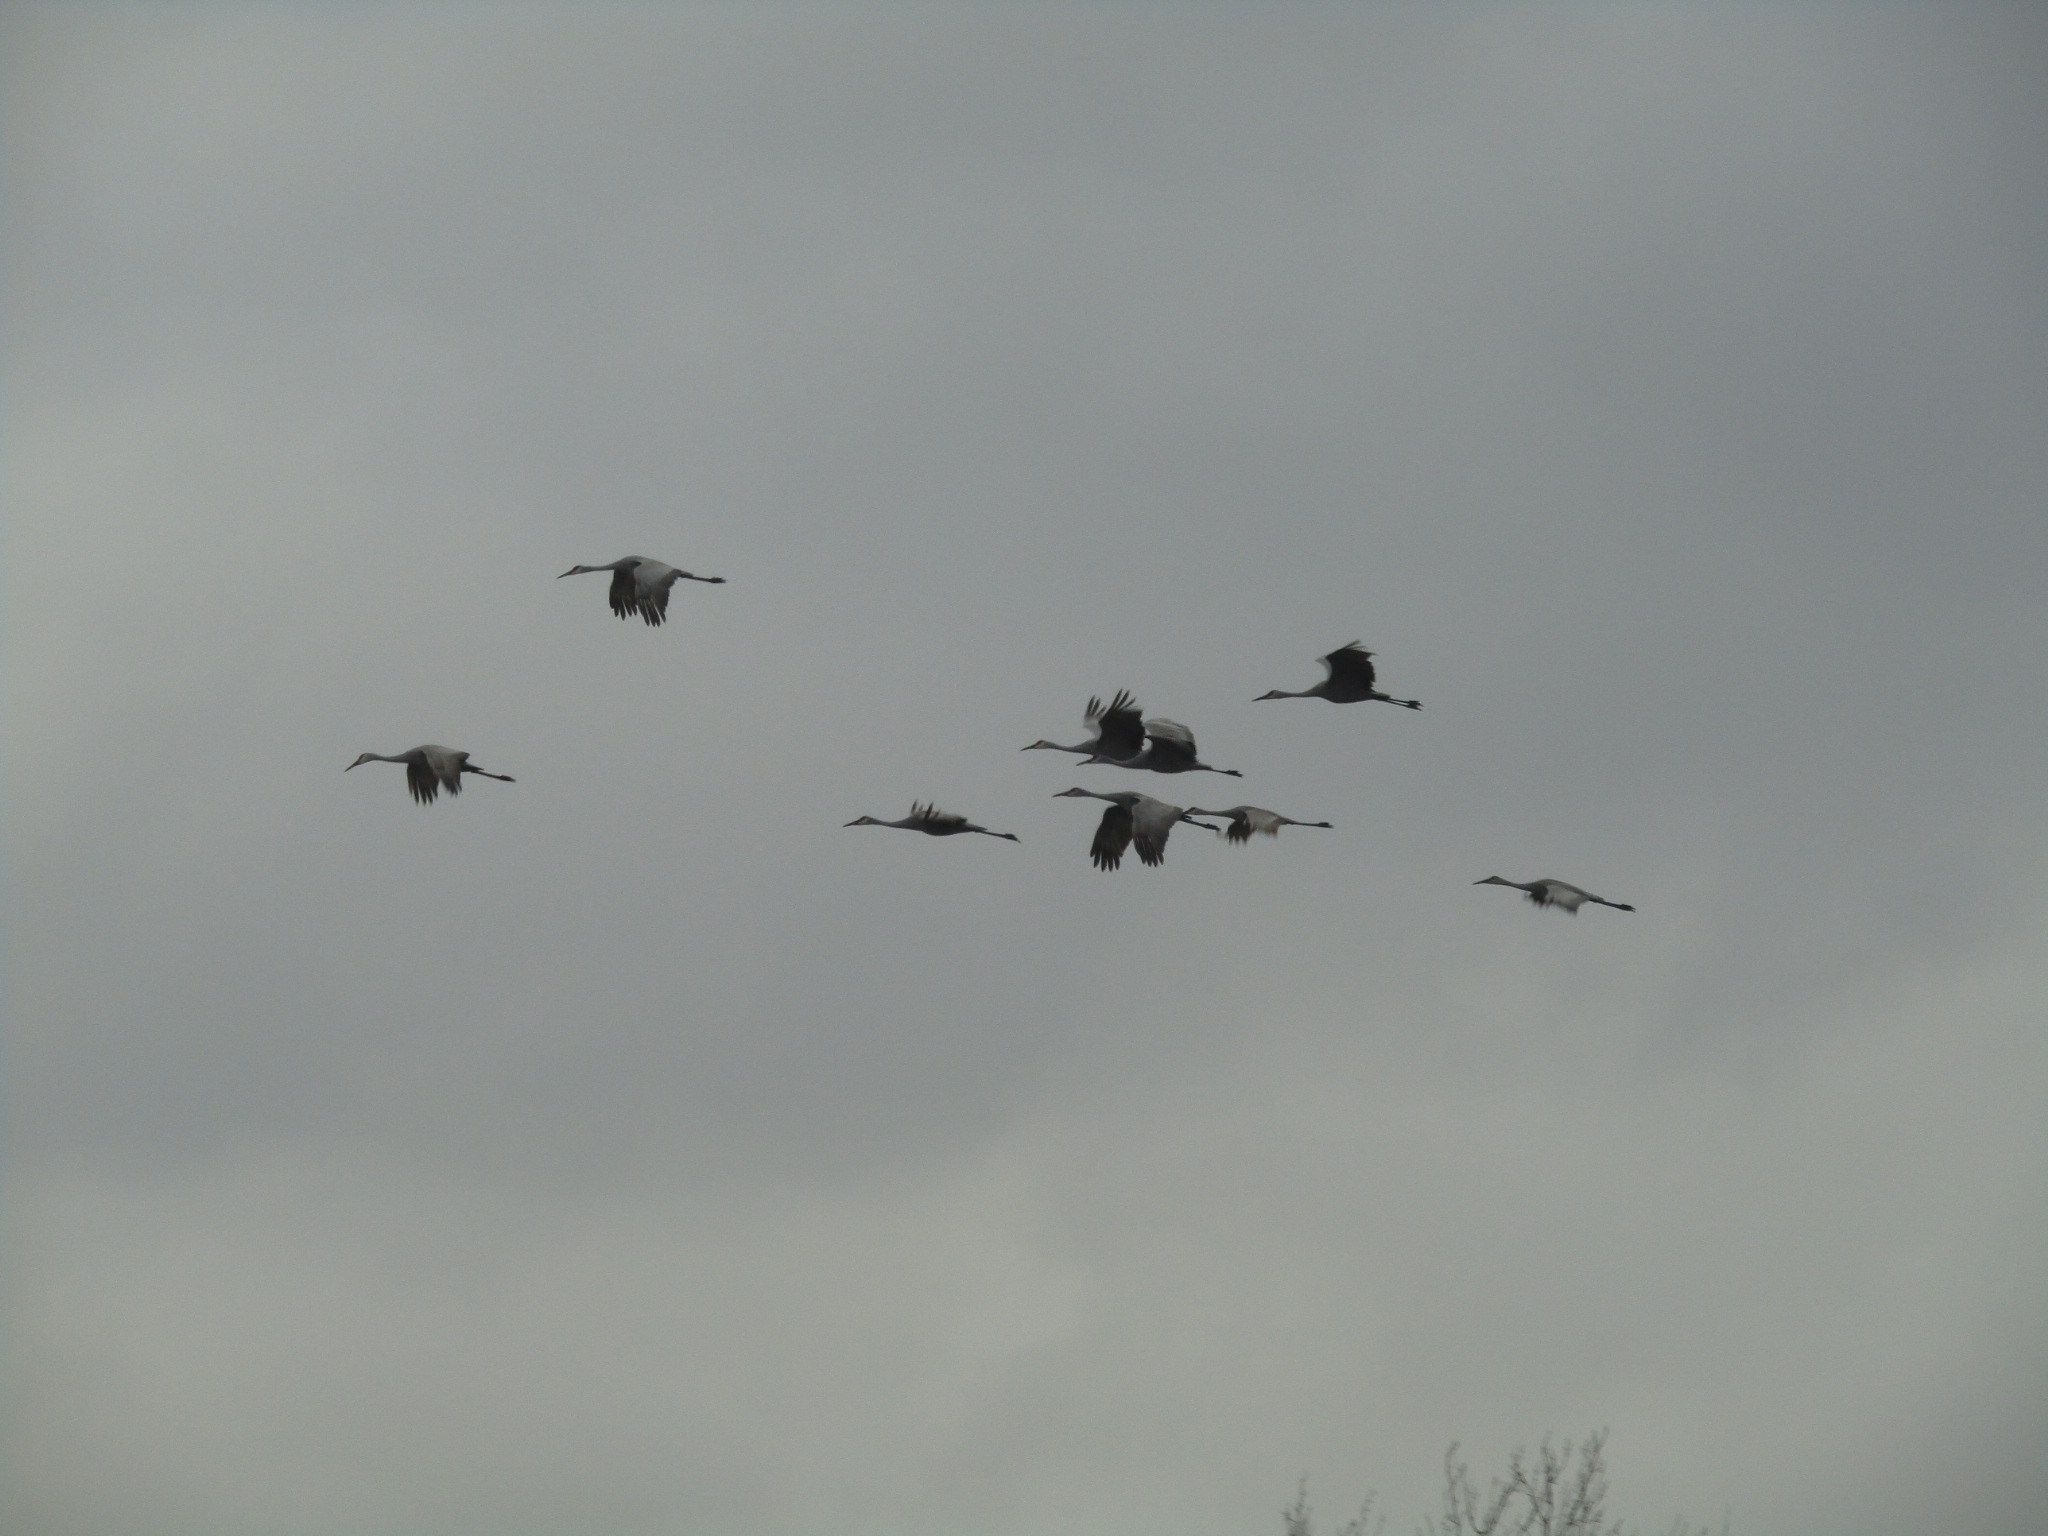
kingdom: Animalia
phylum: Chordata
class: Aves
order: Gruiformes
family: Gruidae
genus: Grus
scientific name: Grus canadensis
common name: Sandhill crane
